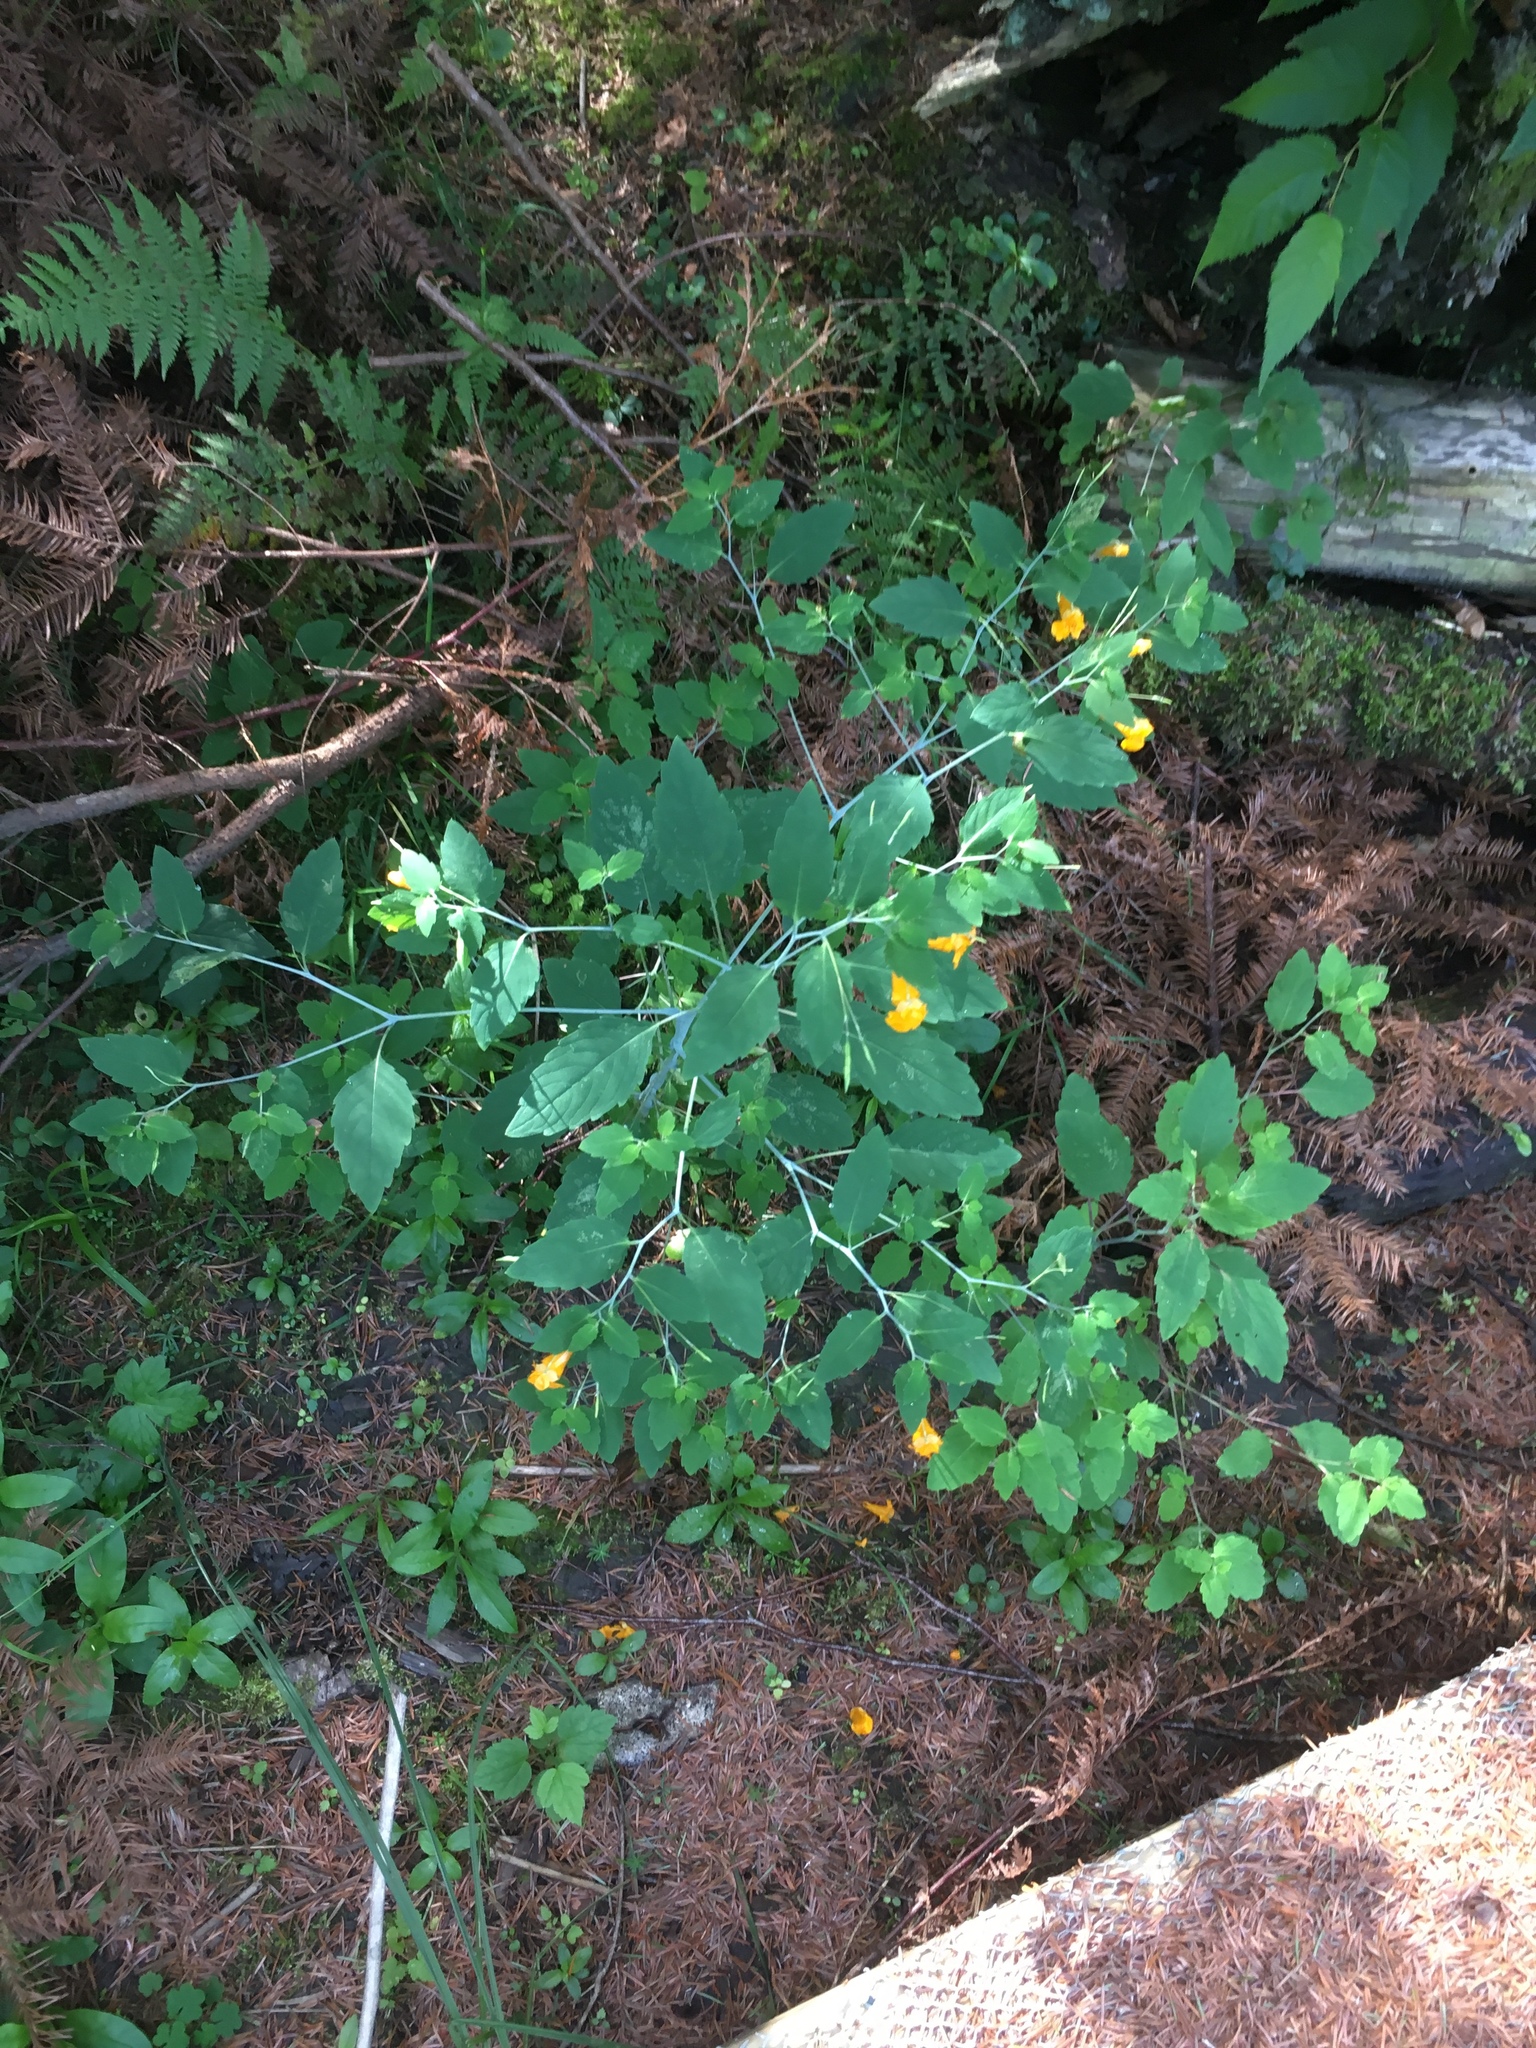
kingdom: Plantae
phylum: Tracheophyta
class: Magnoliopsida
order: Ericales
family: Balsaminaceae
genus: Impatiens
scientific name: Impatiens capensis
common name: Orange balsam
